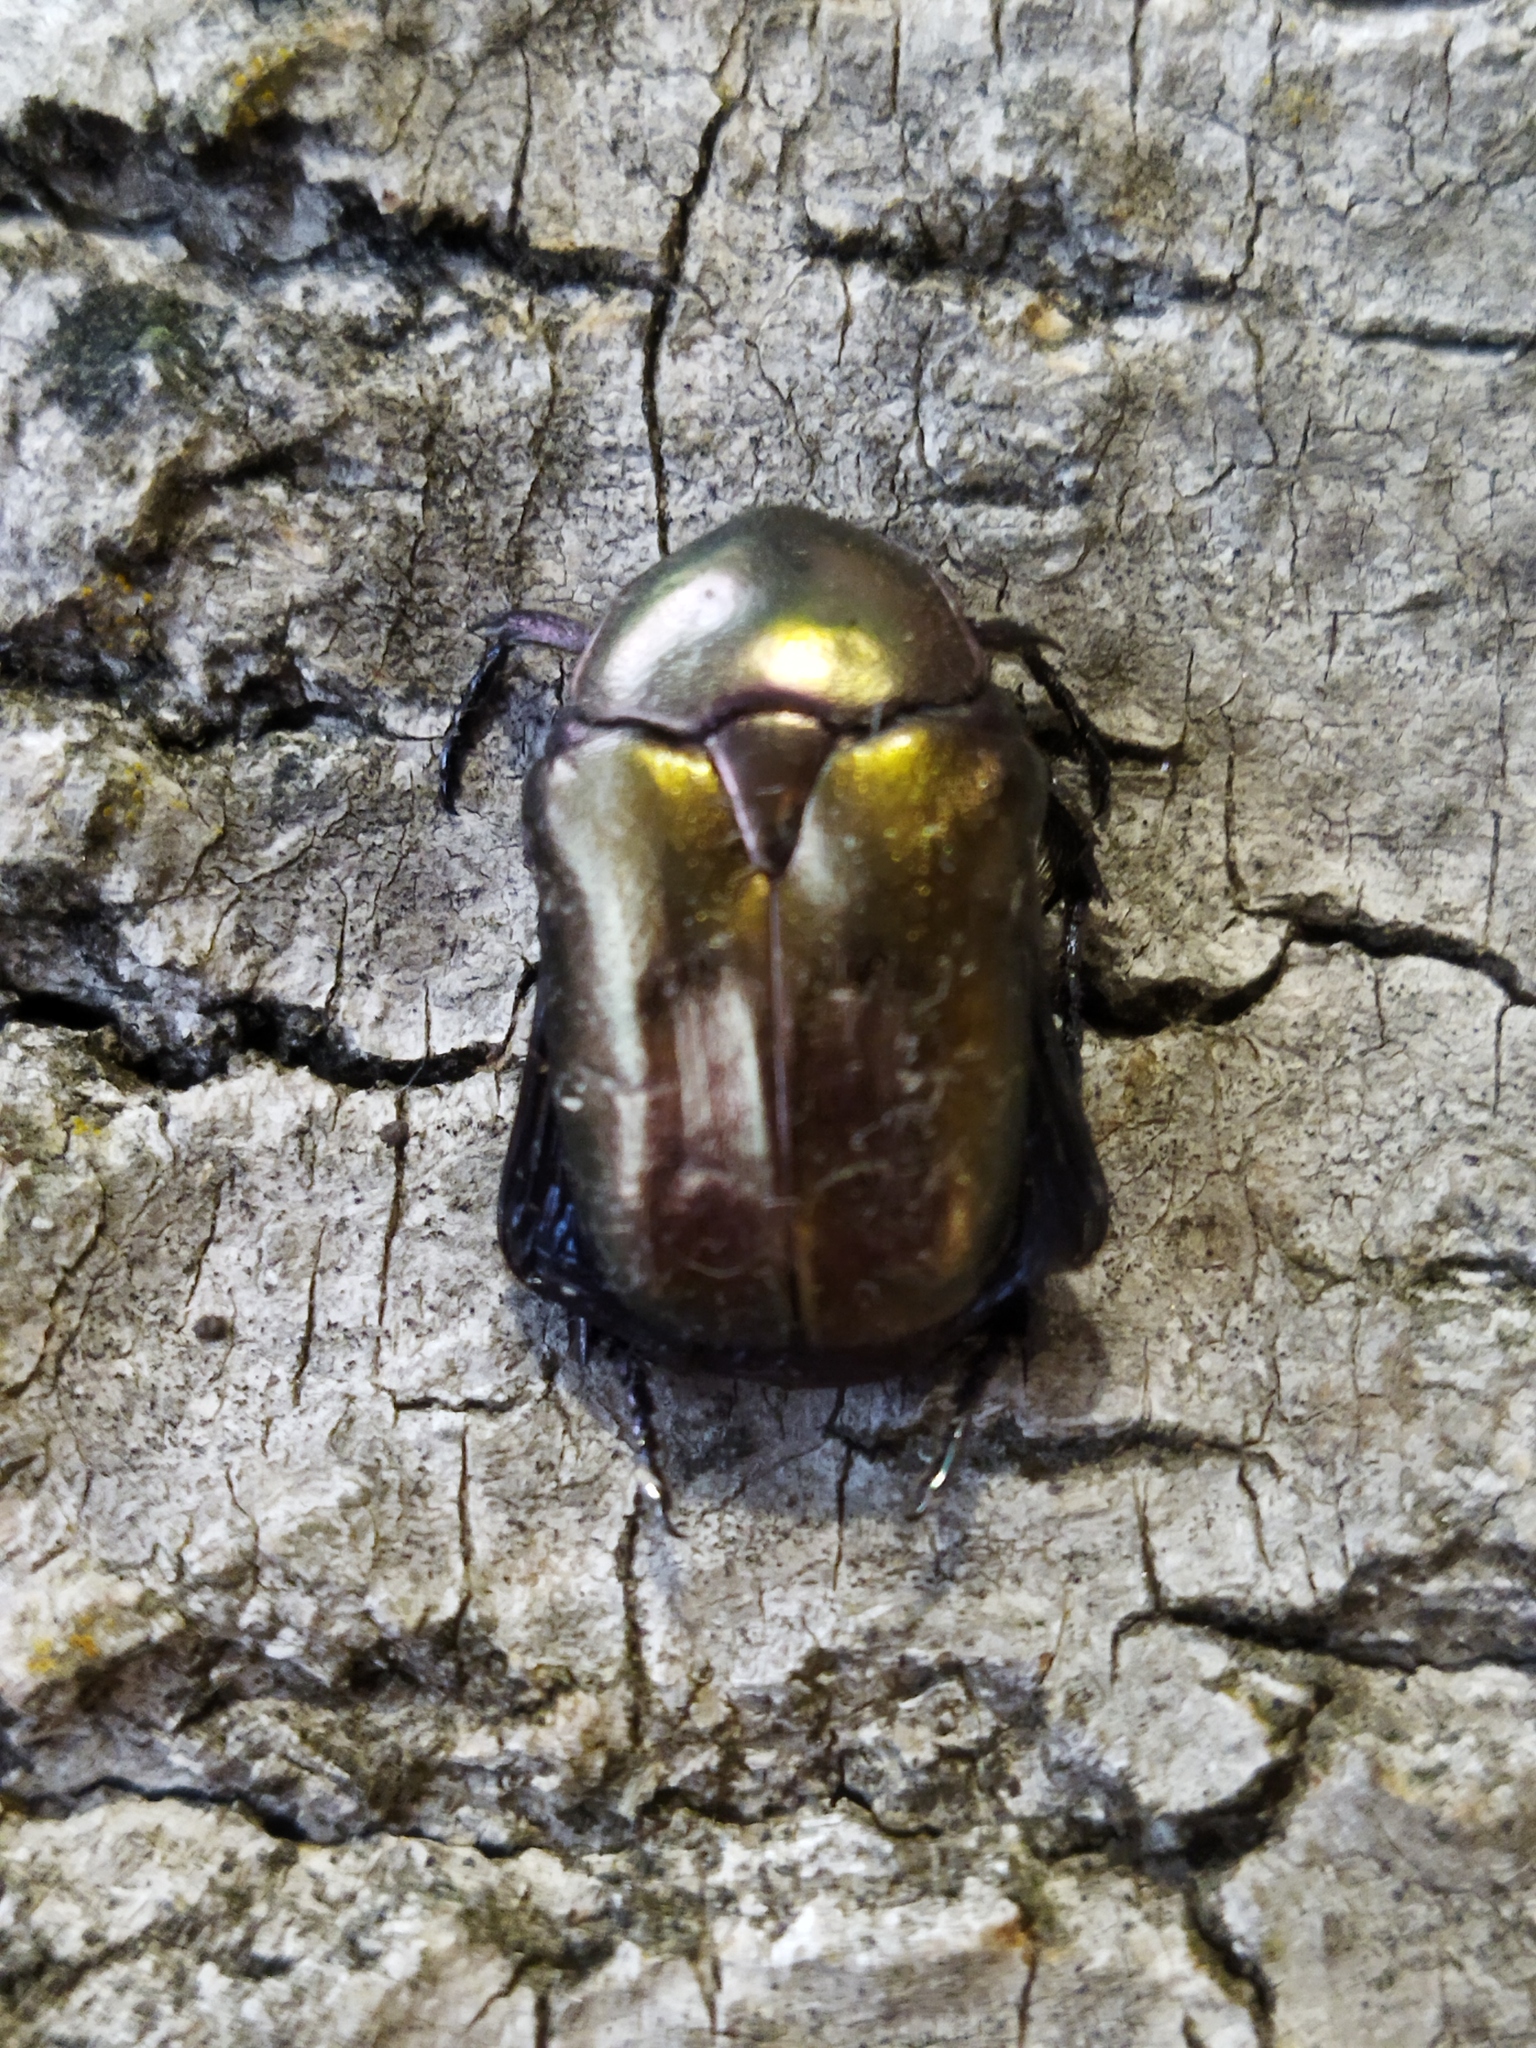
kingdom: Animalia
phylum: Arthropoda
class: Insecta
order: Coleoptera
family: Scarabaeidae
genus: Protaetia
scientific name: Protaetia cuprea
